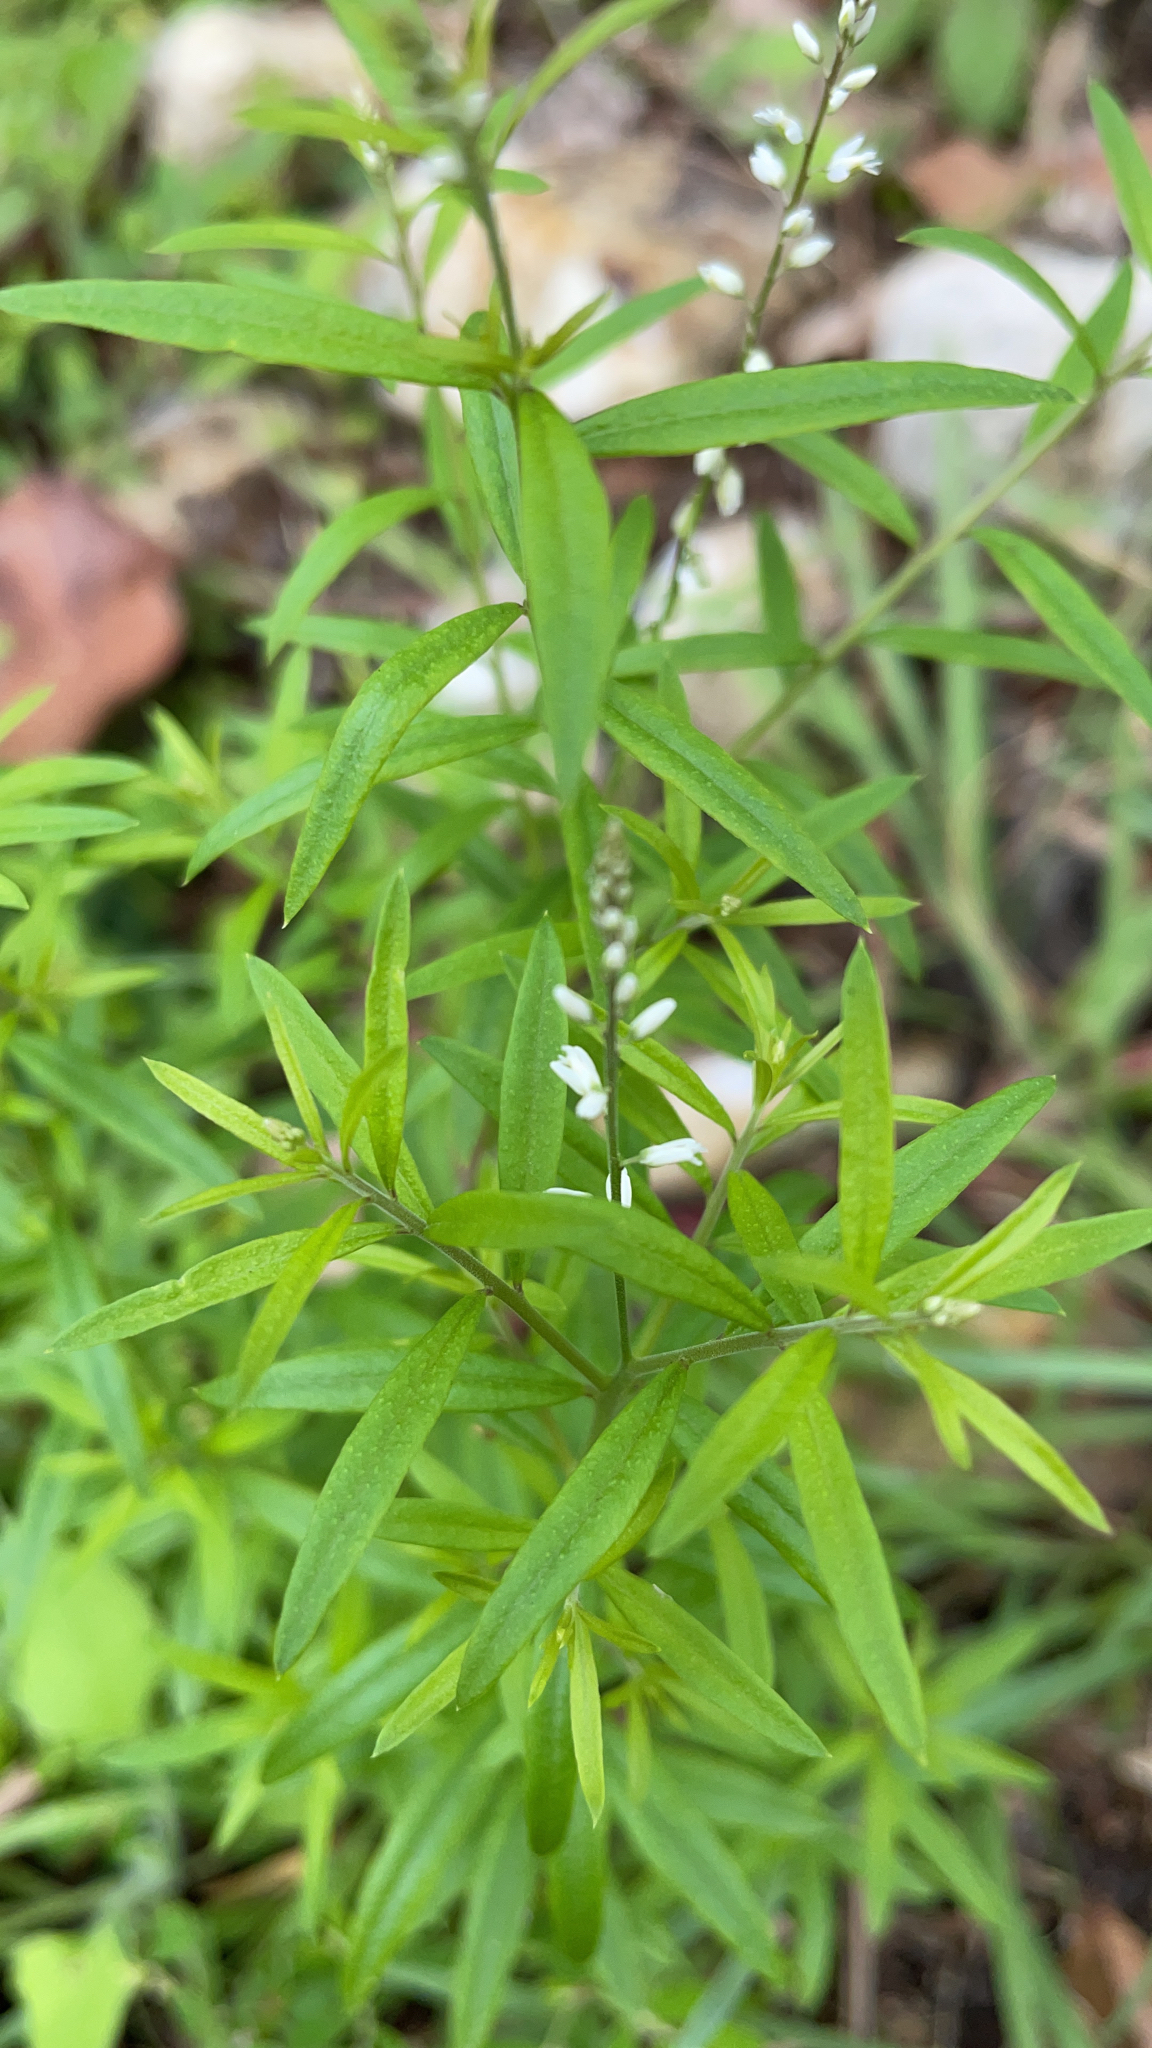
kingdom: Plantae
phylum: Tracheophyta
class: Magnoliopsida
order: Fabales
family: Polygalaceae
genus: Polygala
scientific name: Polygala paniculata
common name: Orosne
